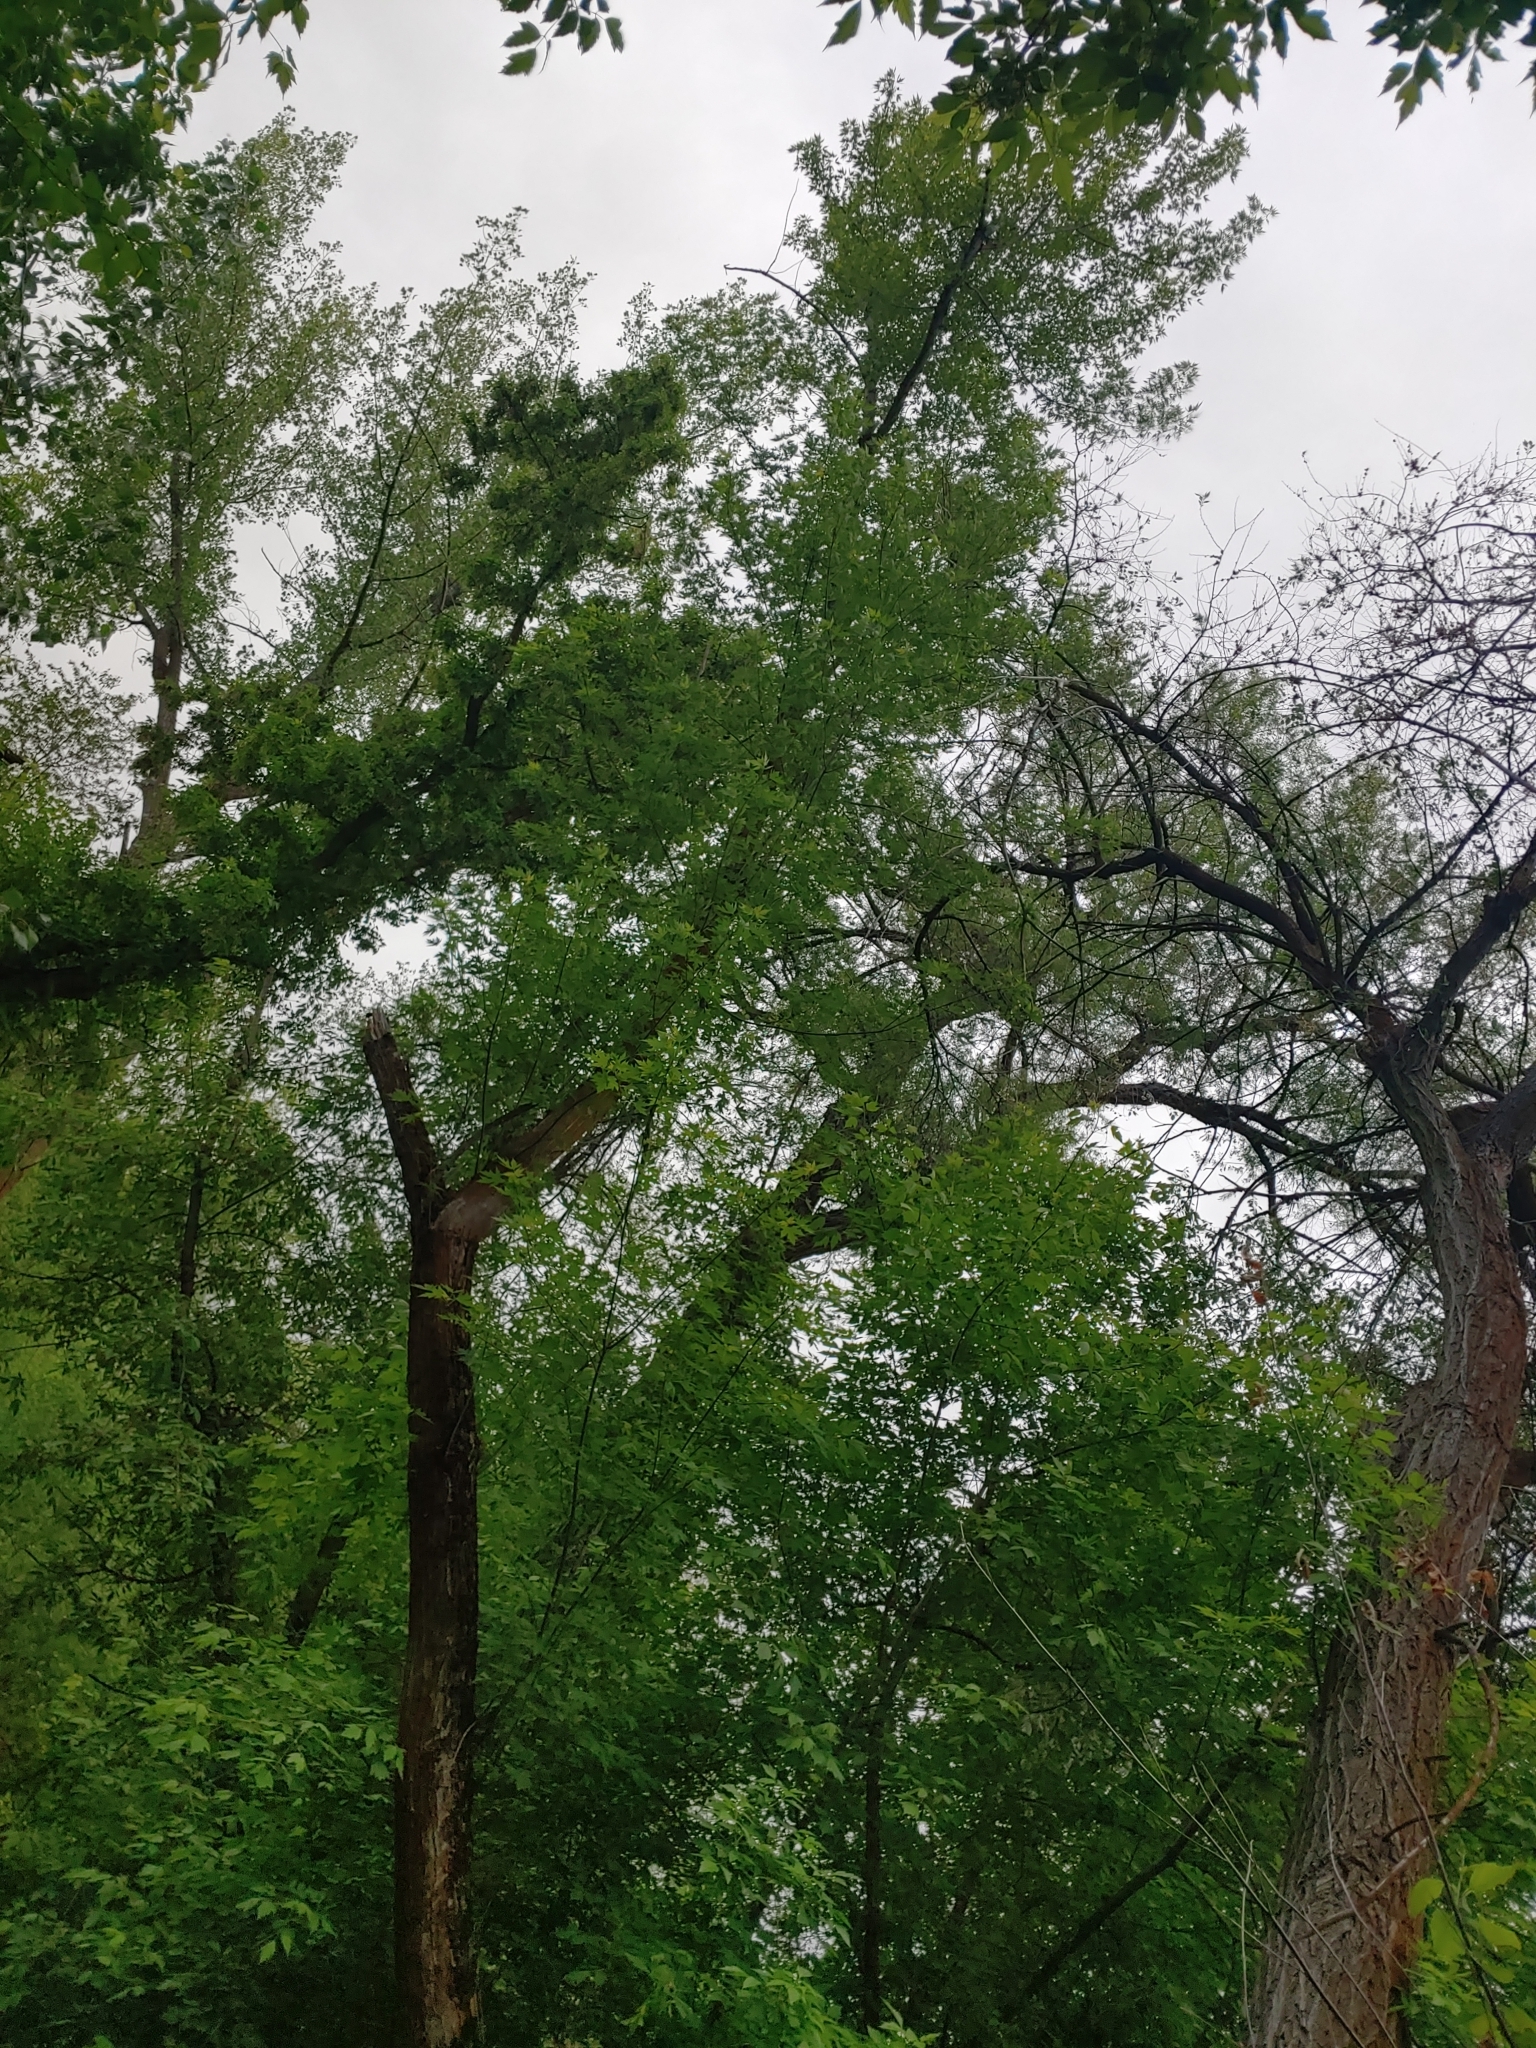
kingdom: Plantae
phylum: Tracheophyta
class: Magnoliopsida
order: Sapindales
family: Sapindaceae
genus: Acer
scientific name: Acer saccharinum
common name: Silver maple
